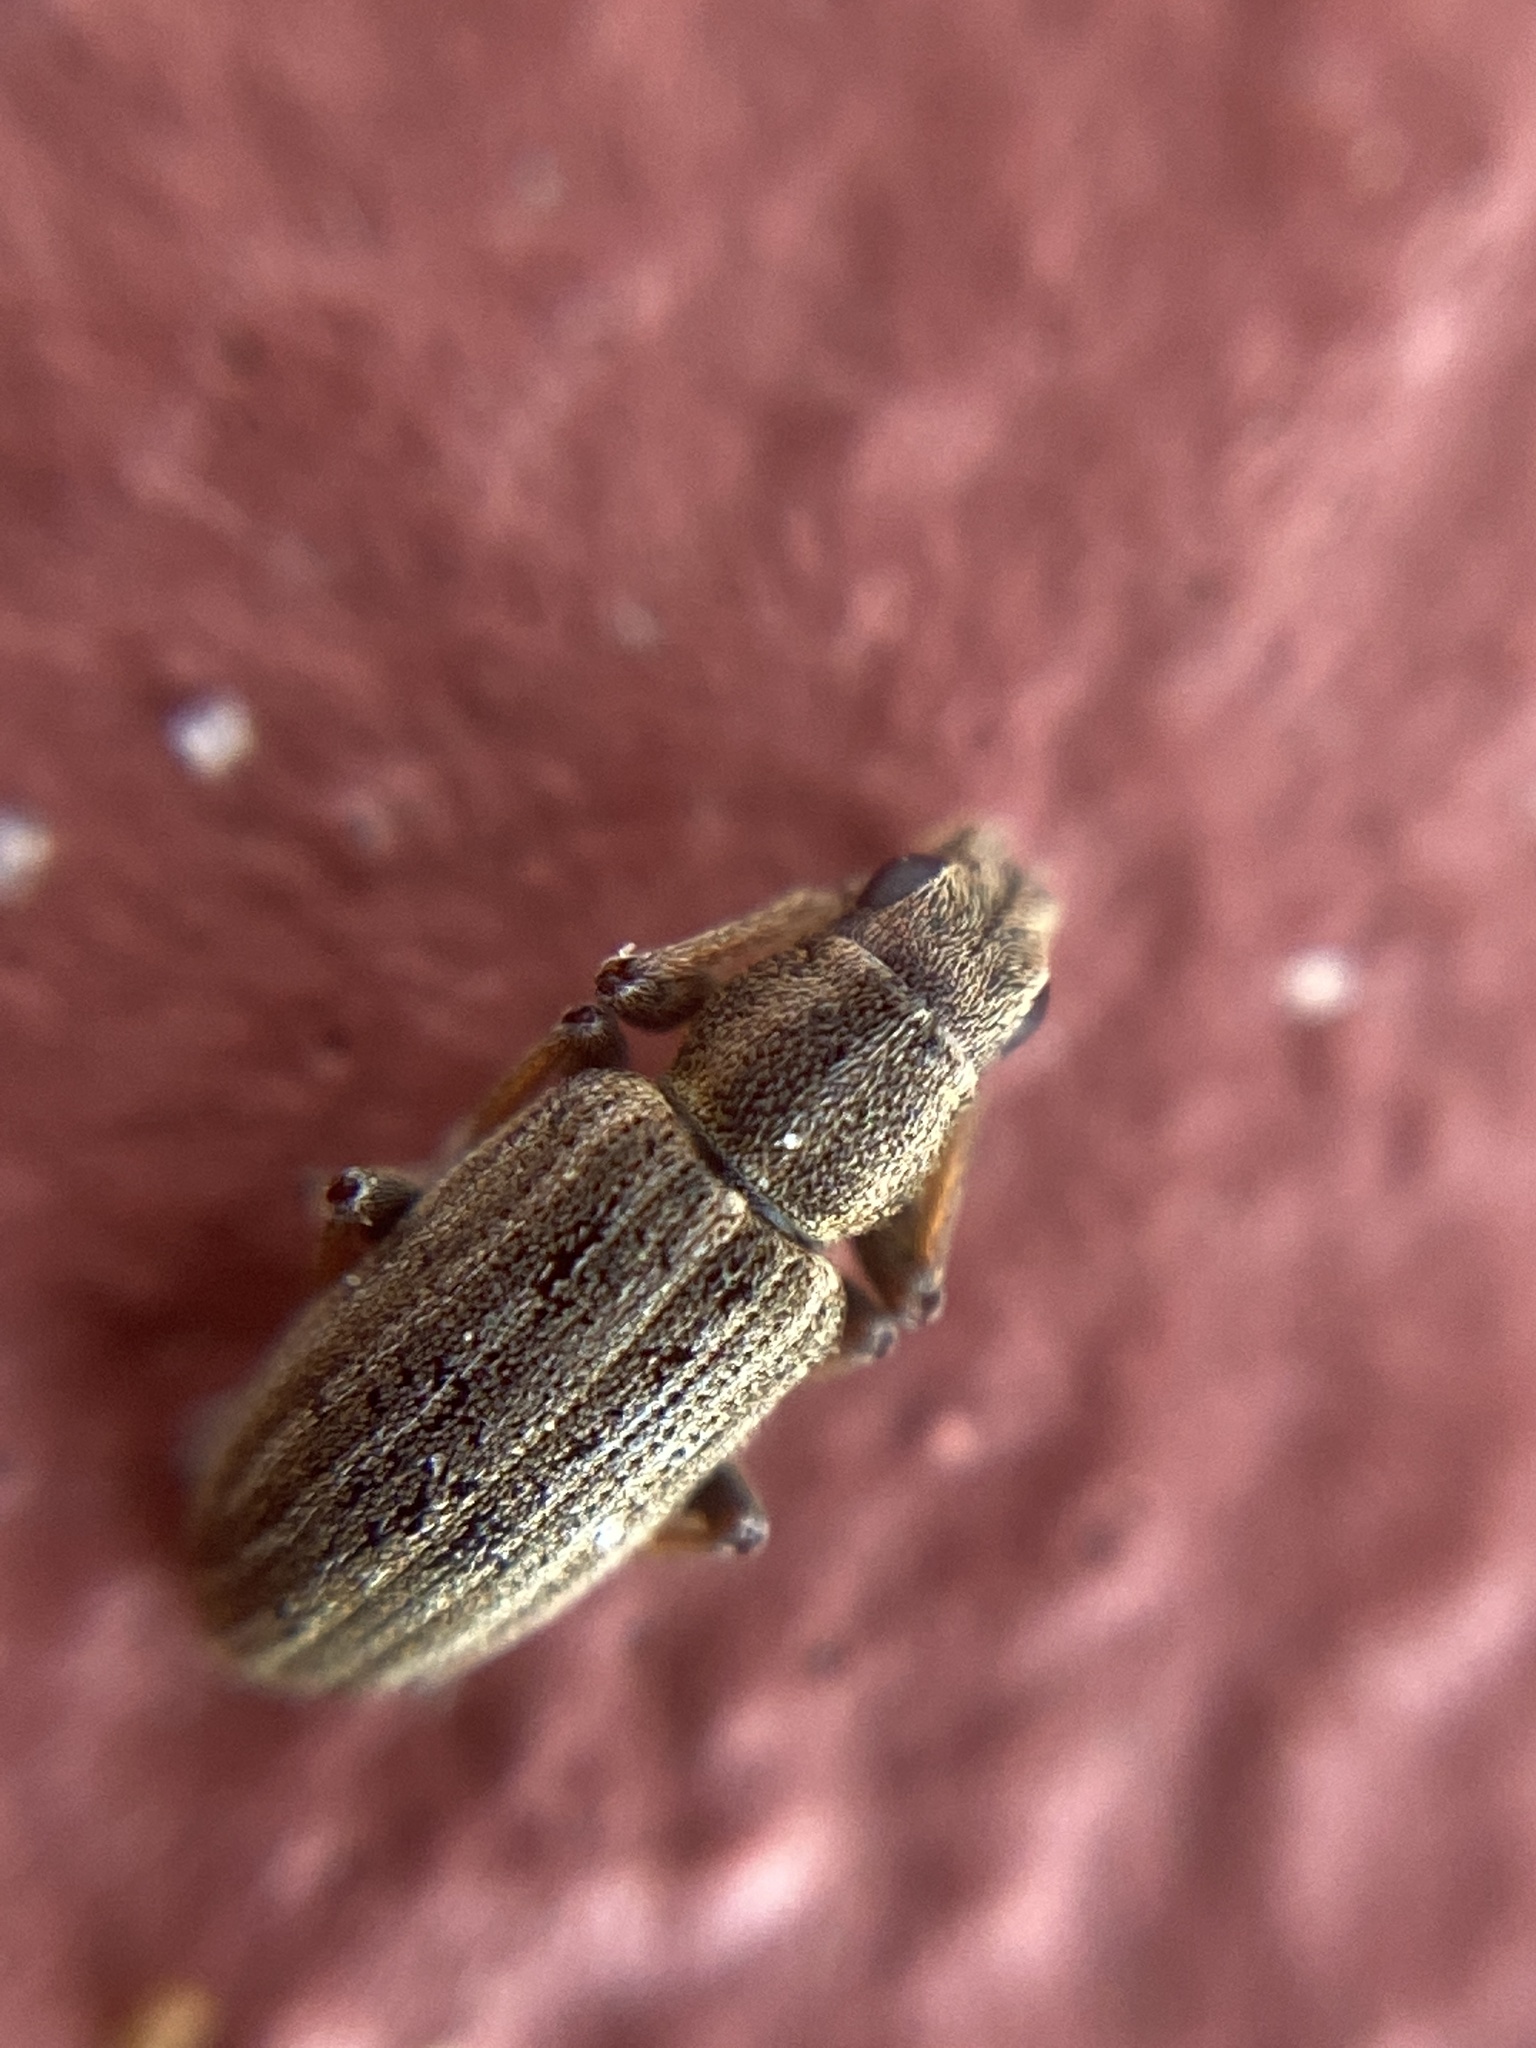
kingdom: Animalia
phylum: Arthropoda
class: Insecta
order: Coleoptera
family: Curculionidae
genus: Sitona
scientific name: Sitona lineatus
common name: Weevil
